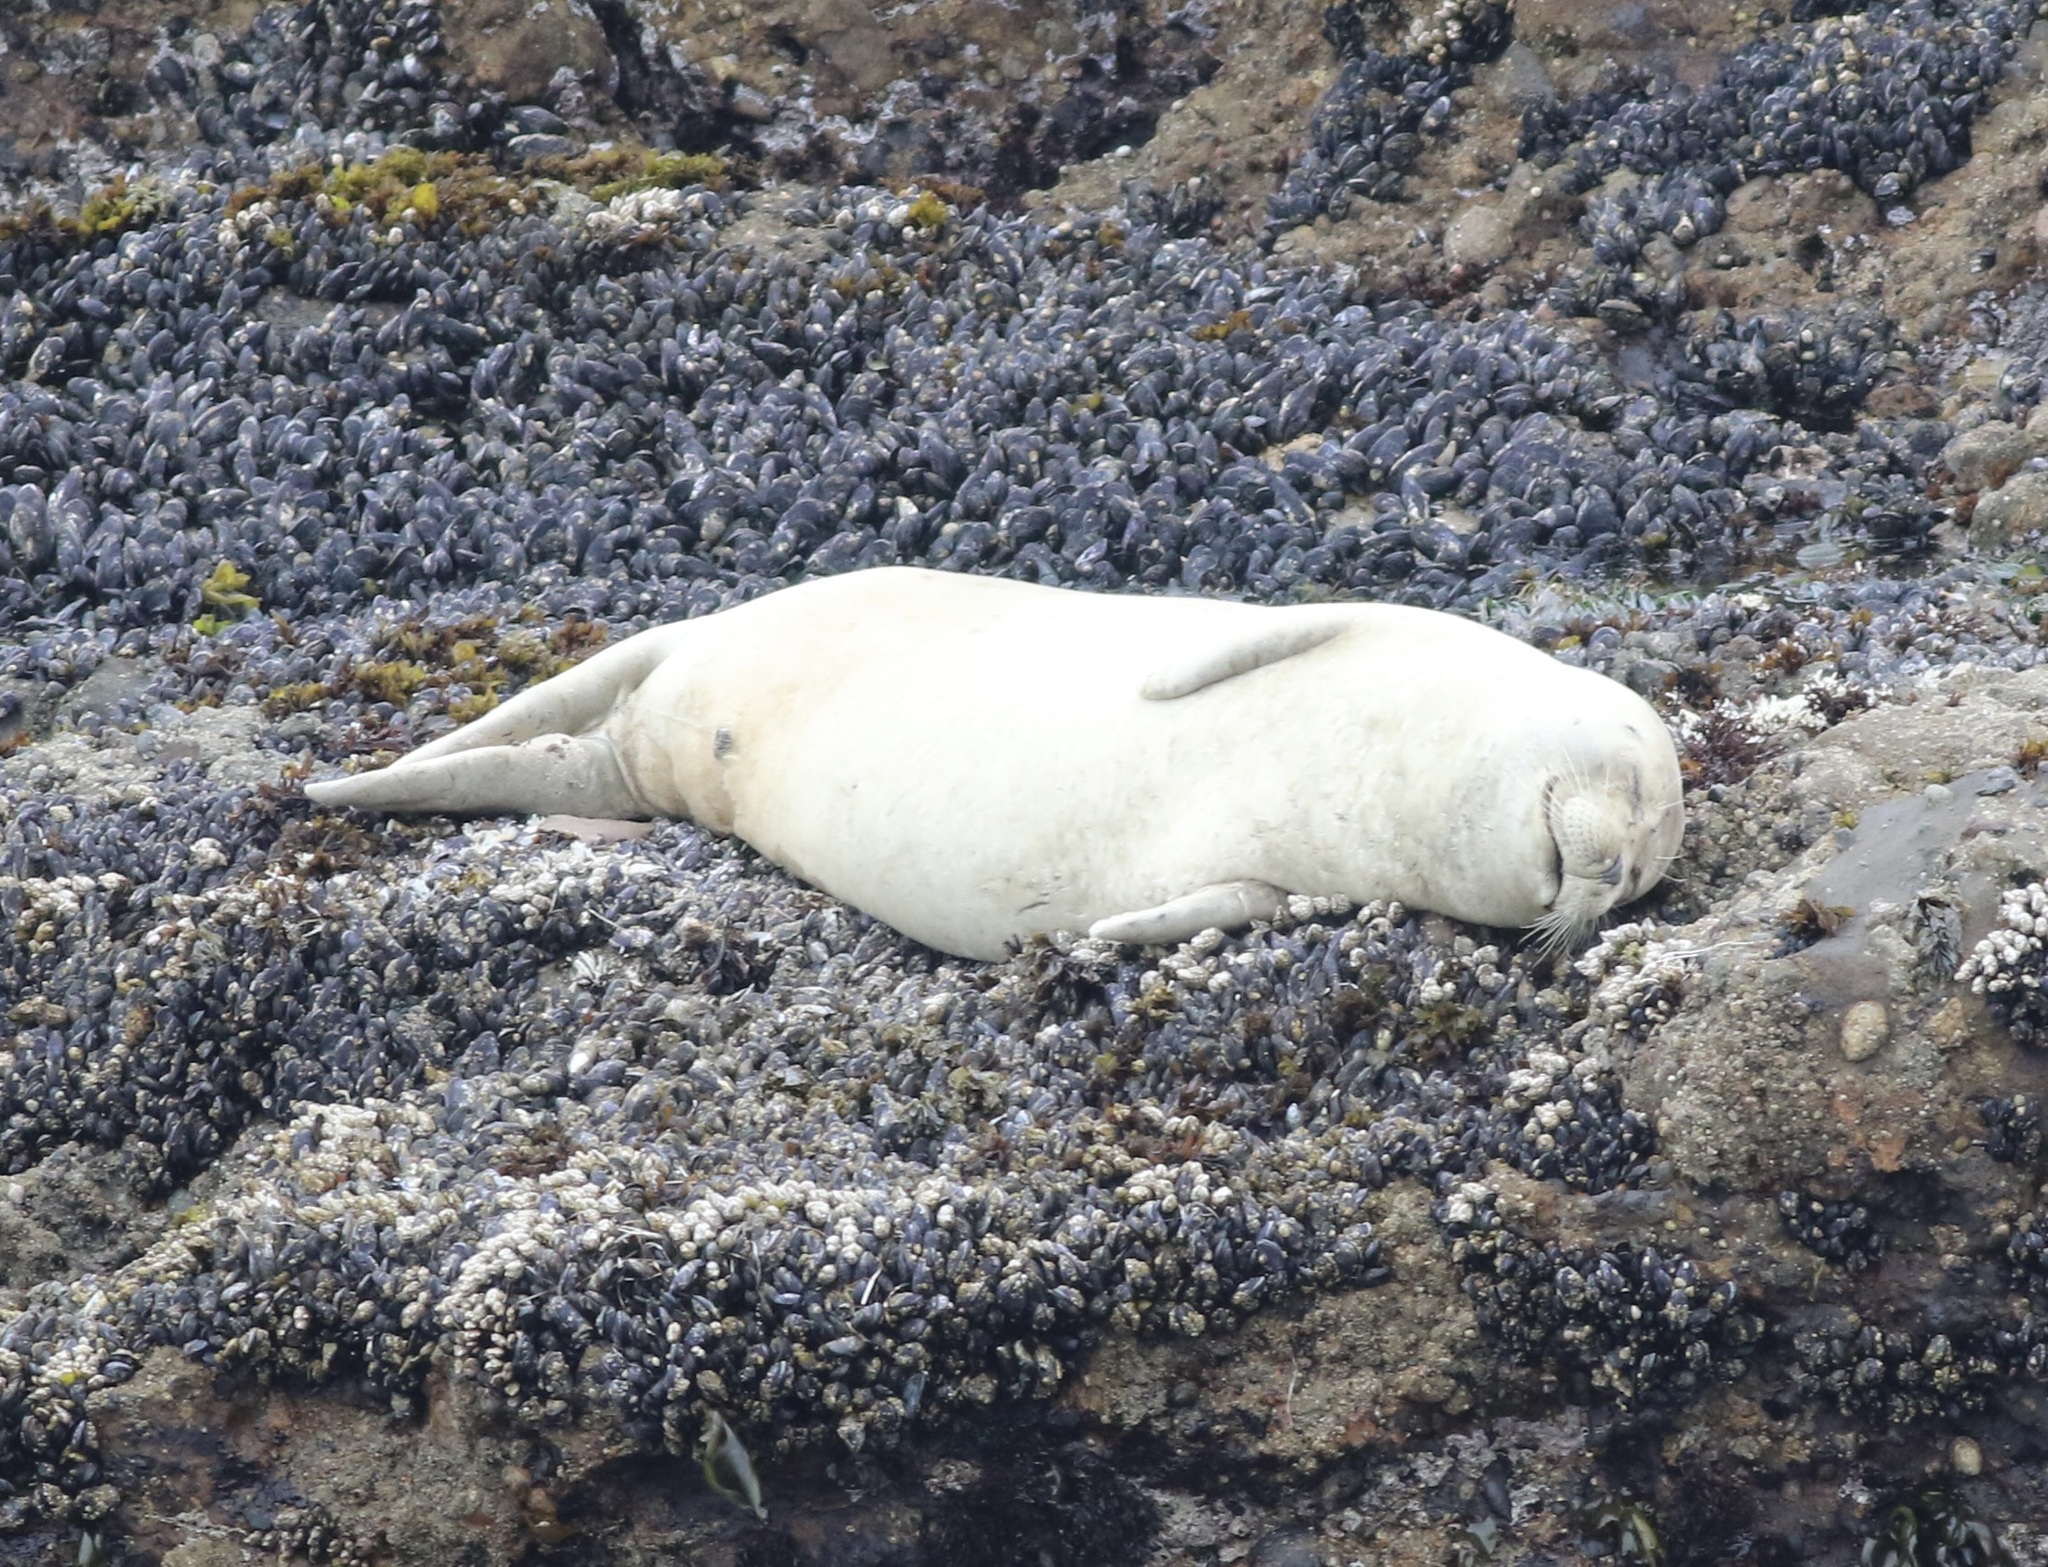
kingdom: Animalia
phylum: Chordata
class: Mammalia
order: Carnivora
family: Phocidae
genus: Phoca
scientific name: Phoca vitulina
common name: Harbor seal
